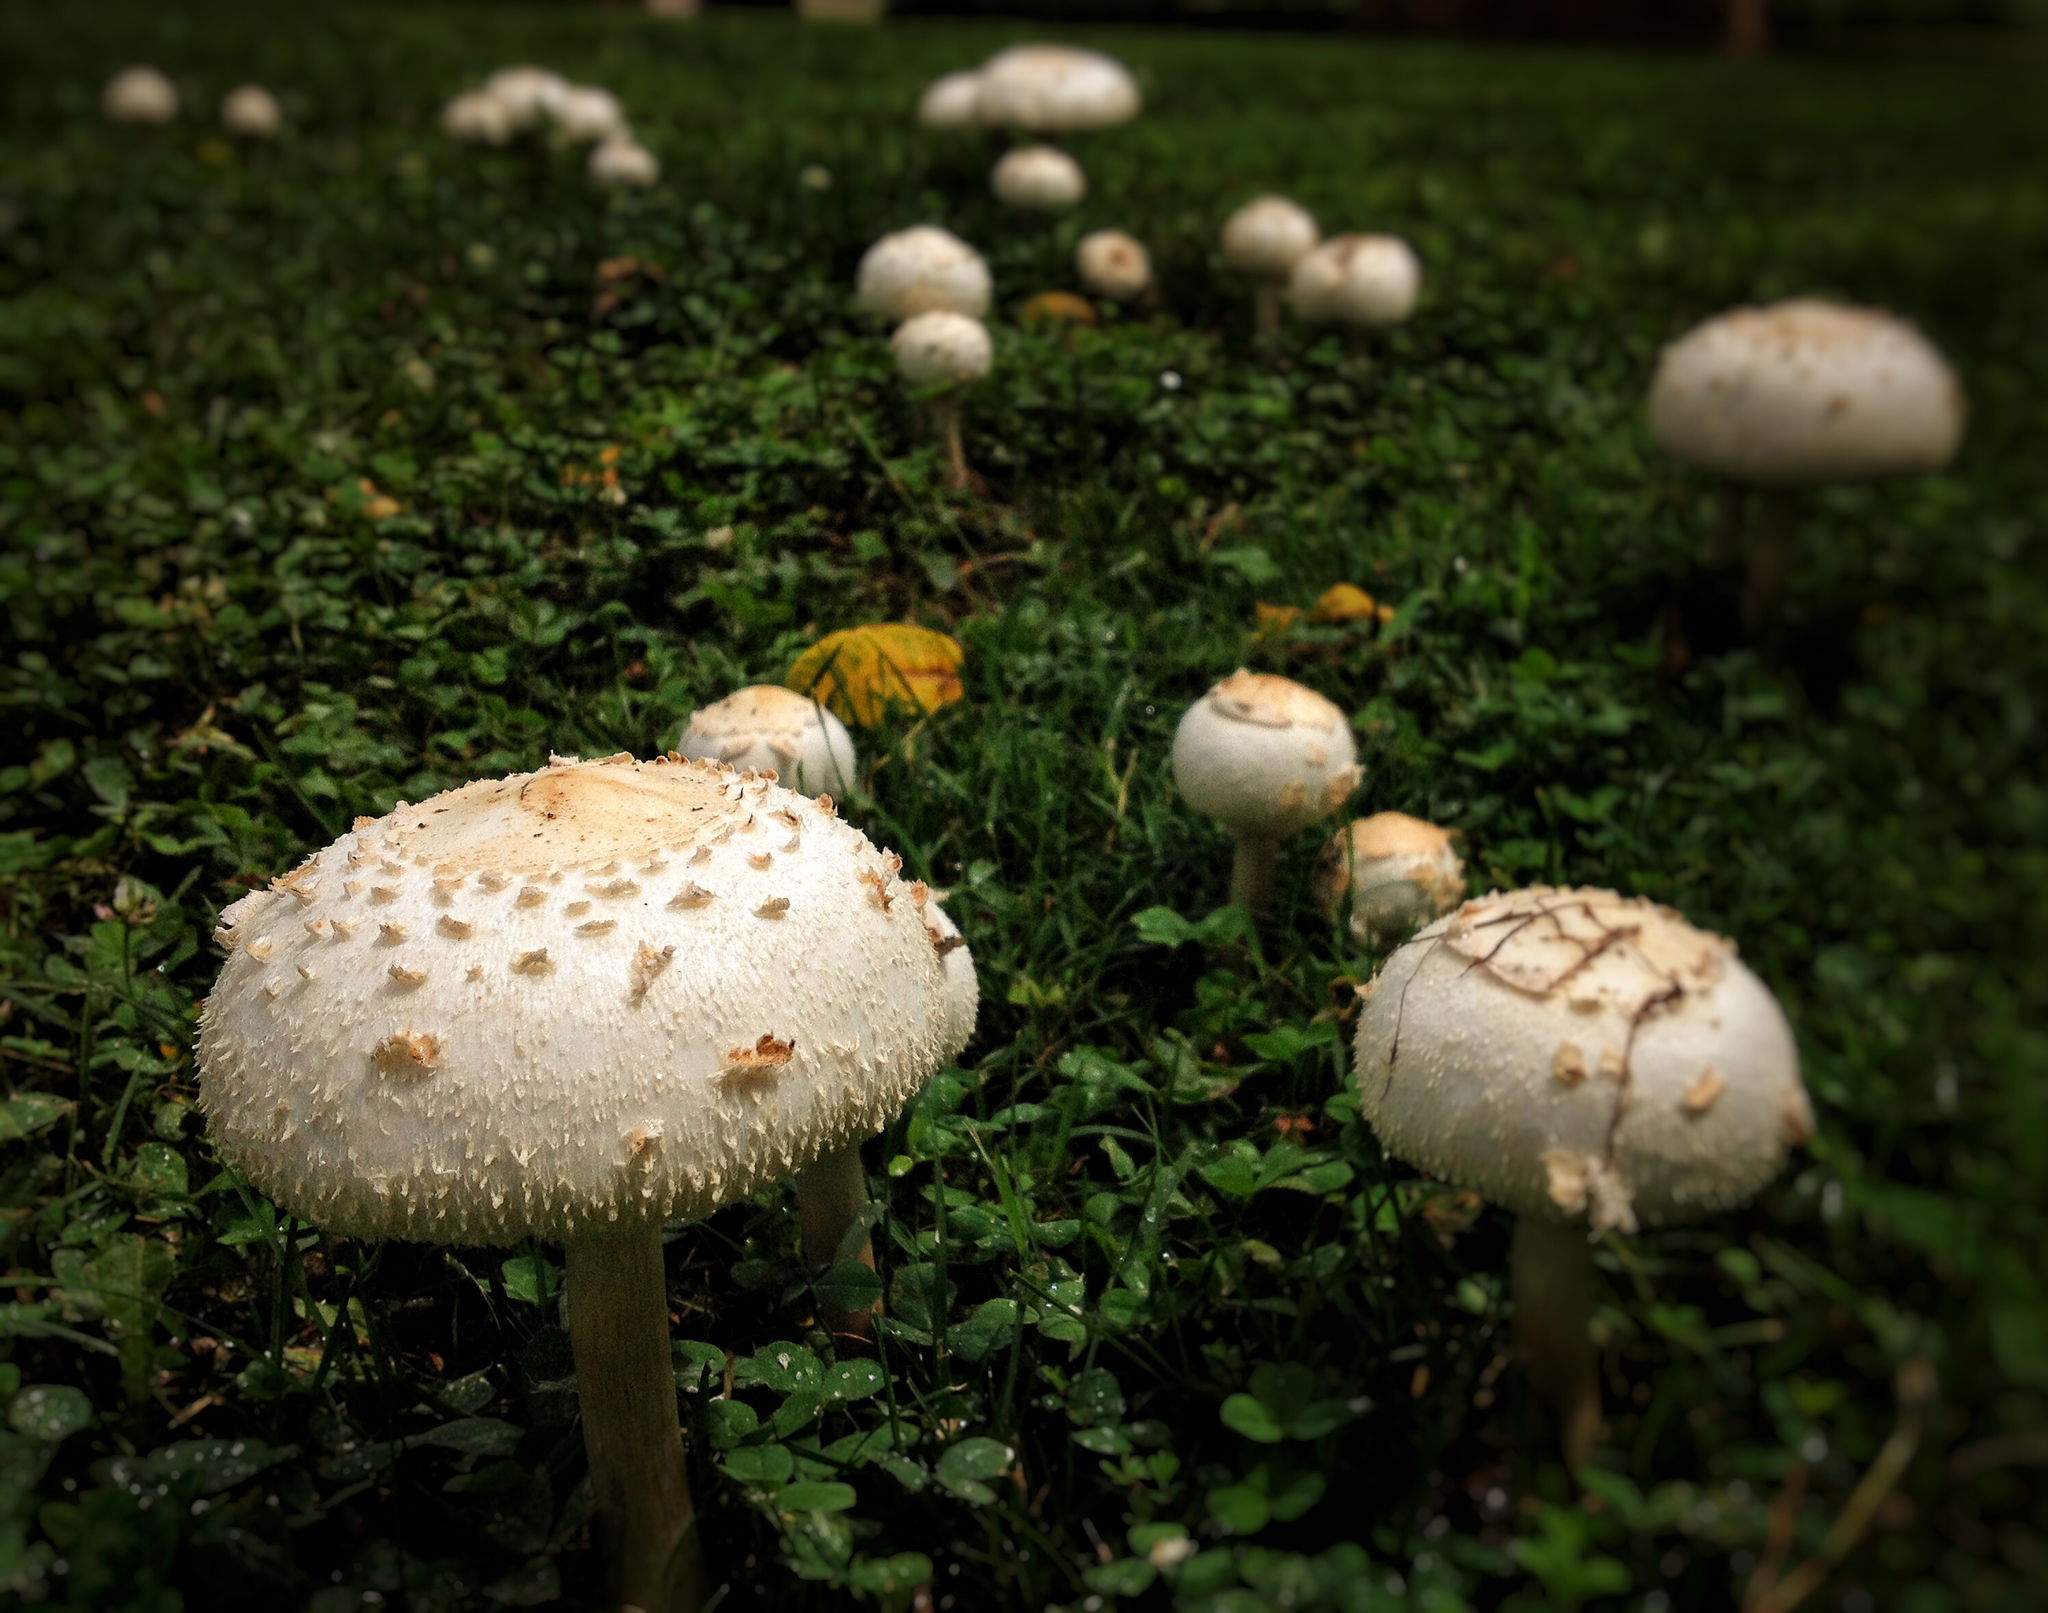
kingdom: Fungi
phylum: Basidiomycota
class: Agaricomycetes
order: Agaricales
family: Agaricaceae
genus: Chlorophyllum
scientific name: Chlorophyllum molybdites
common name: False parasol
